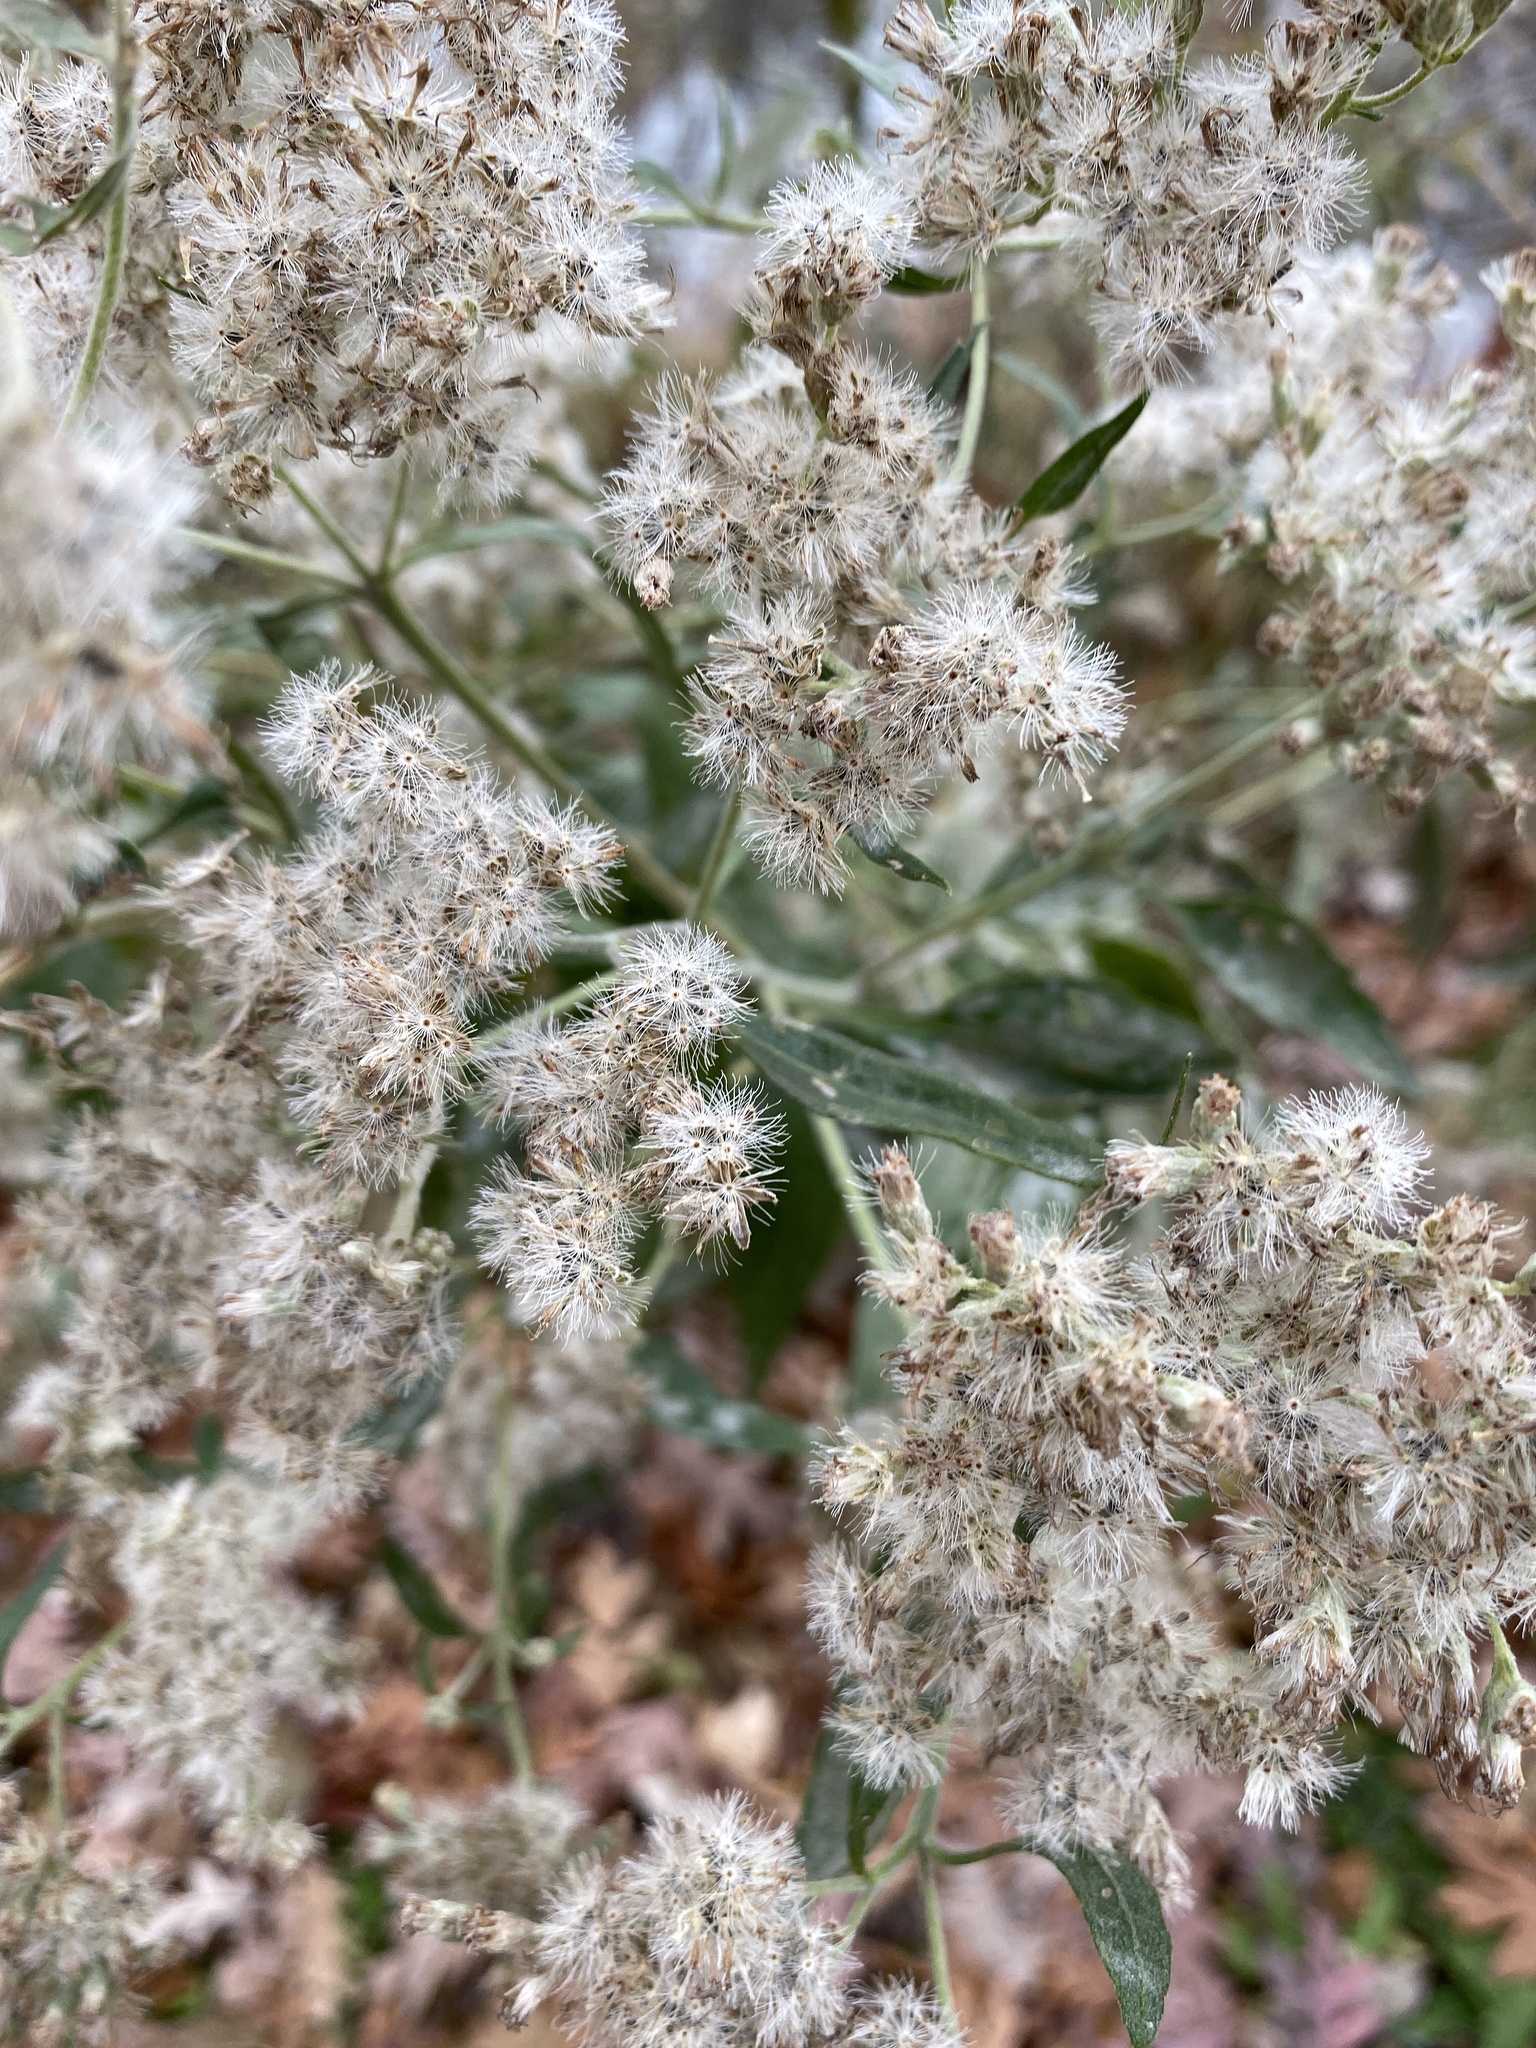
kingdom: Plantae
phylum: Tracheophyta
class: Magnoliopsida
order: Asterales
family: Asteraceae
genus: Eupatorium
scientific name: Eupatorium serotinum
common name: Late boneset
